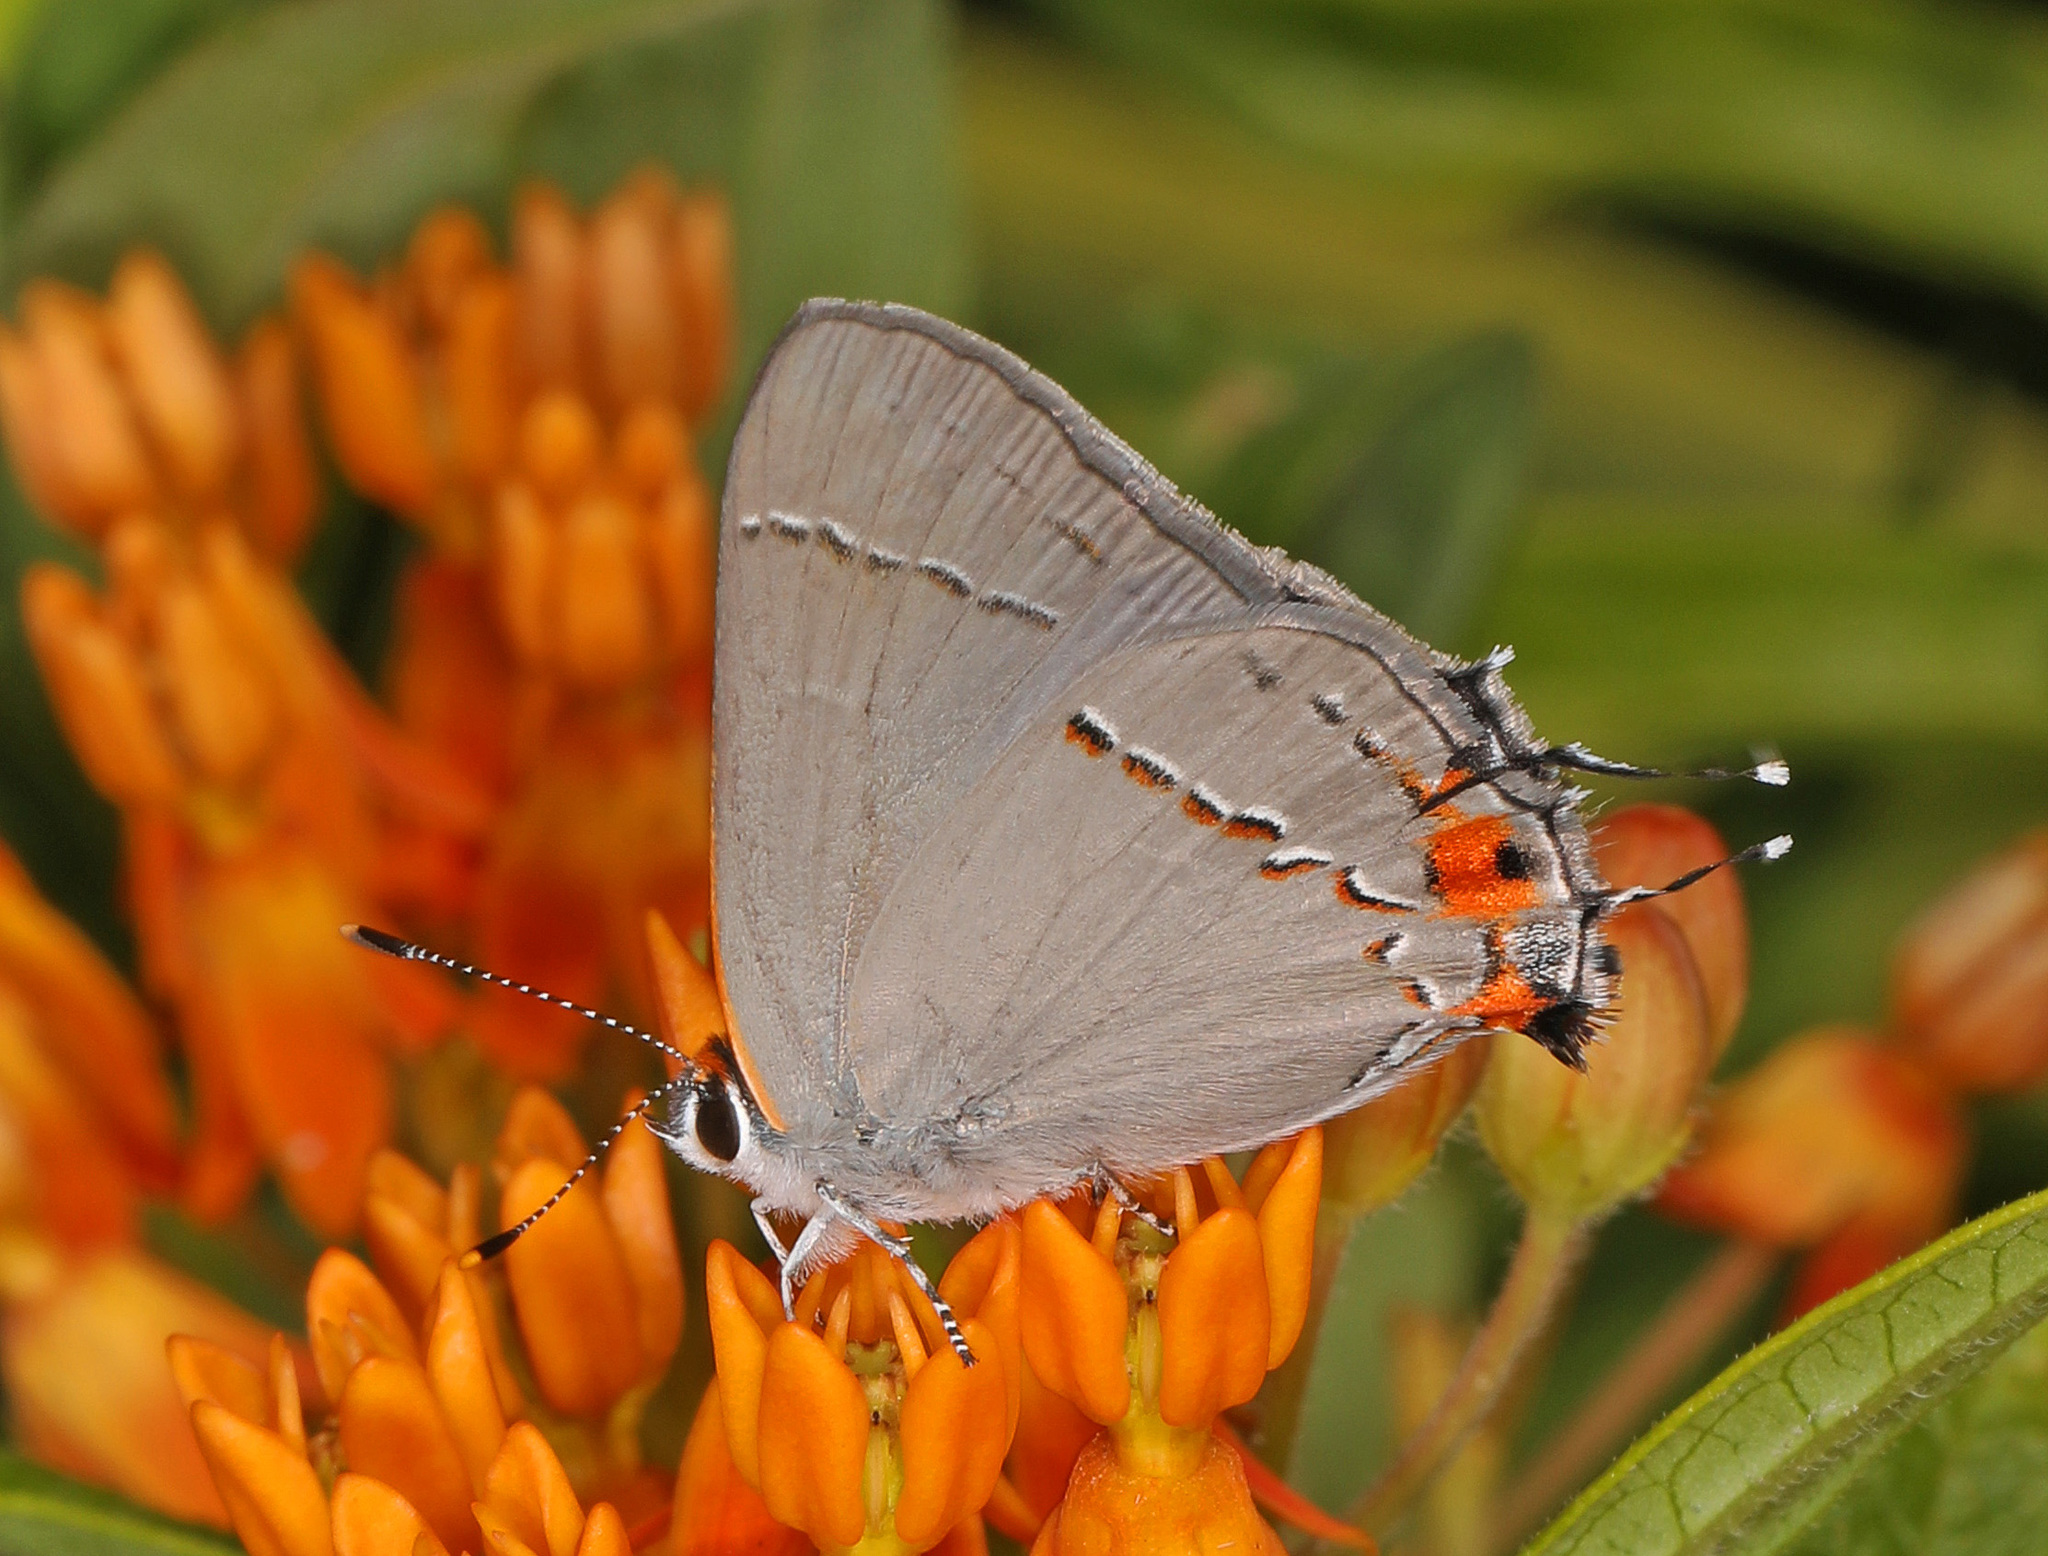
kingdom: Animalia
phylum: Arthropoda
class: Insecta
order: Lepidoptera
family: Lycaenidae
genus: Strymon
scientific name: Strymon melinus
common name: Gray hairstreak
